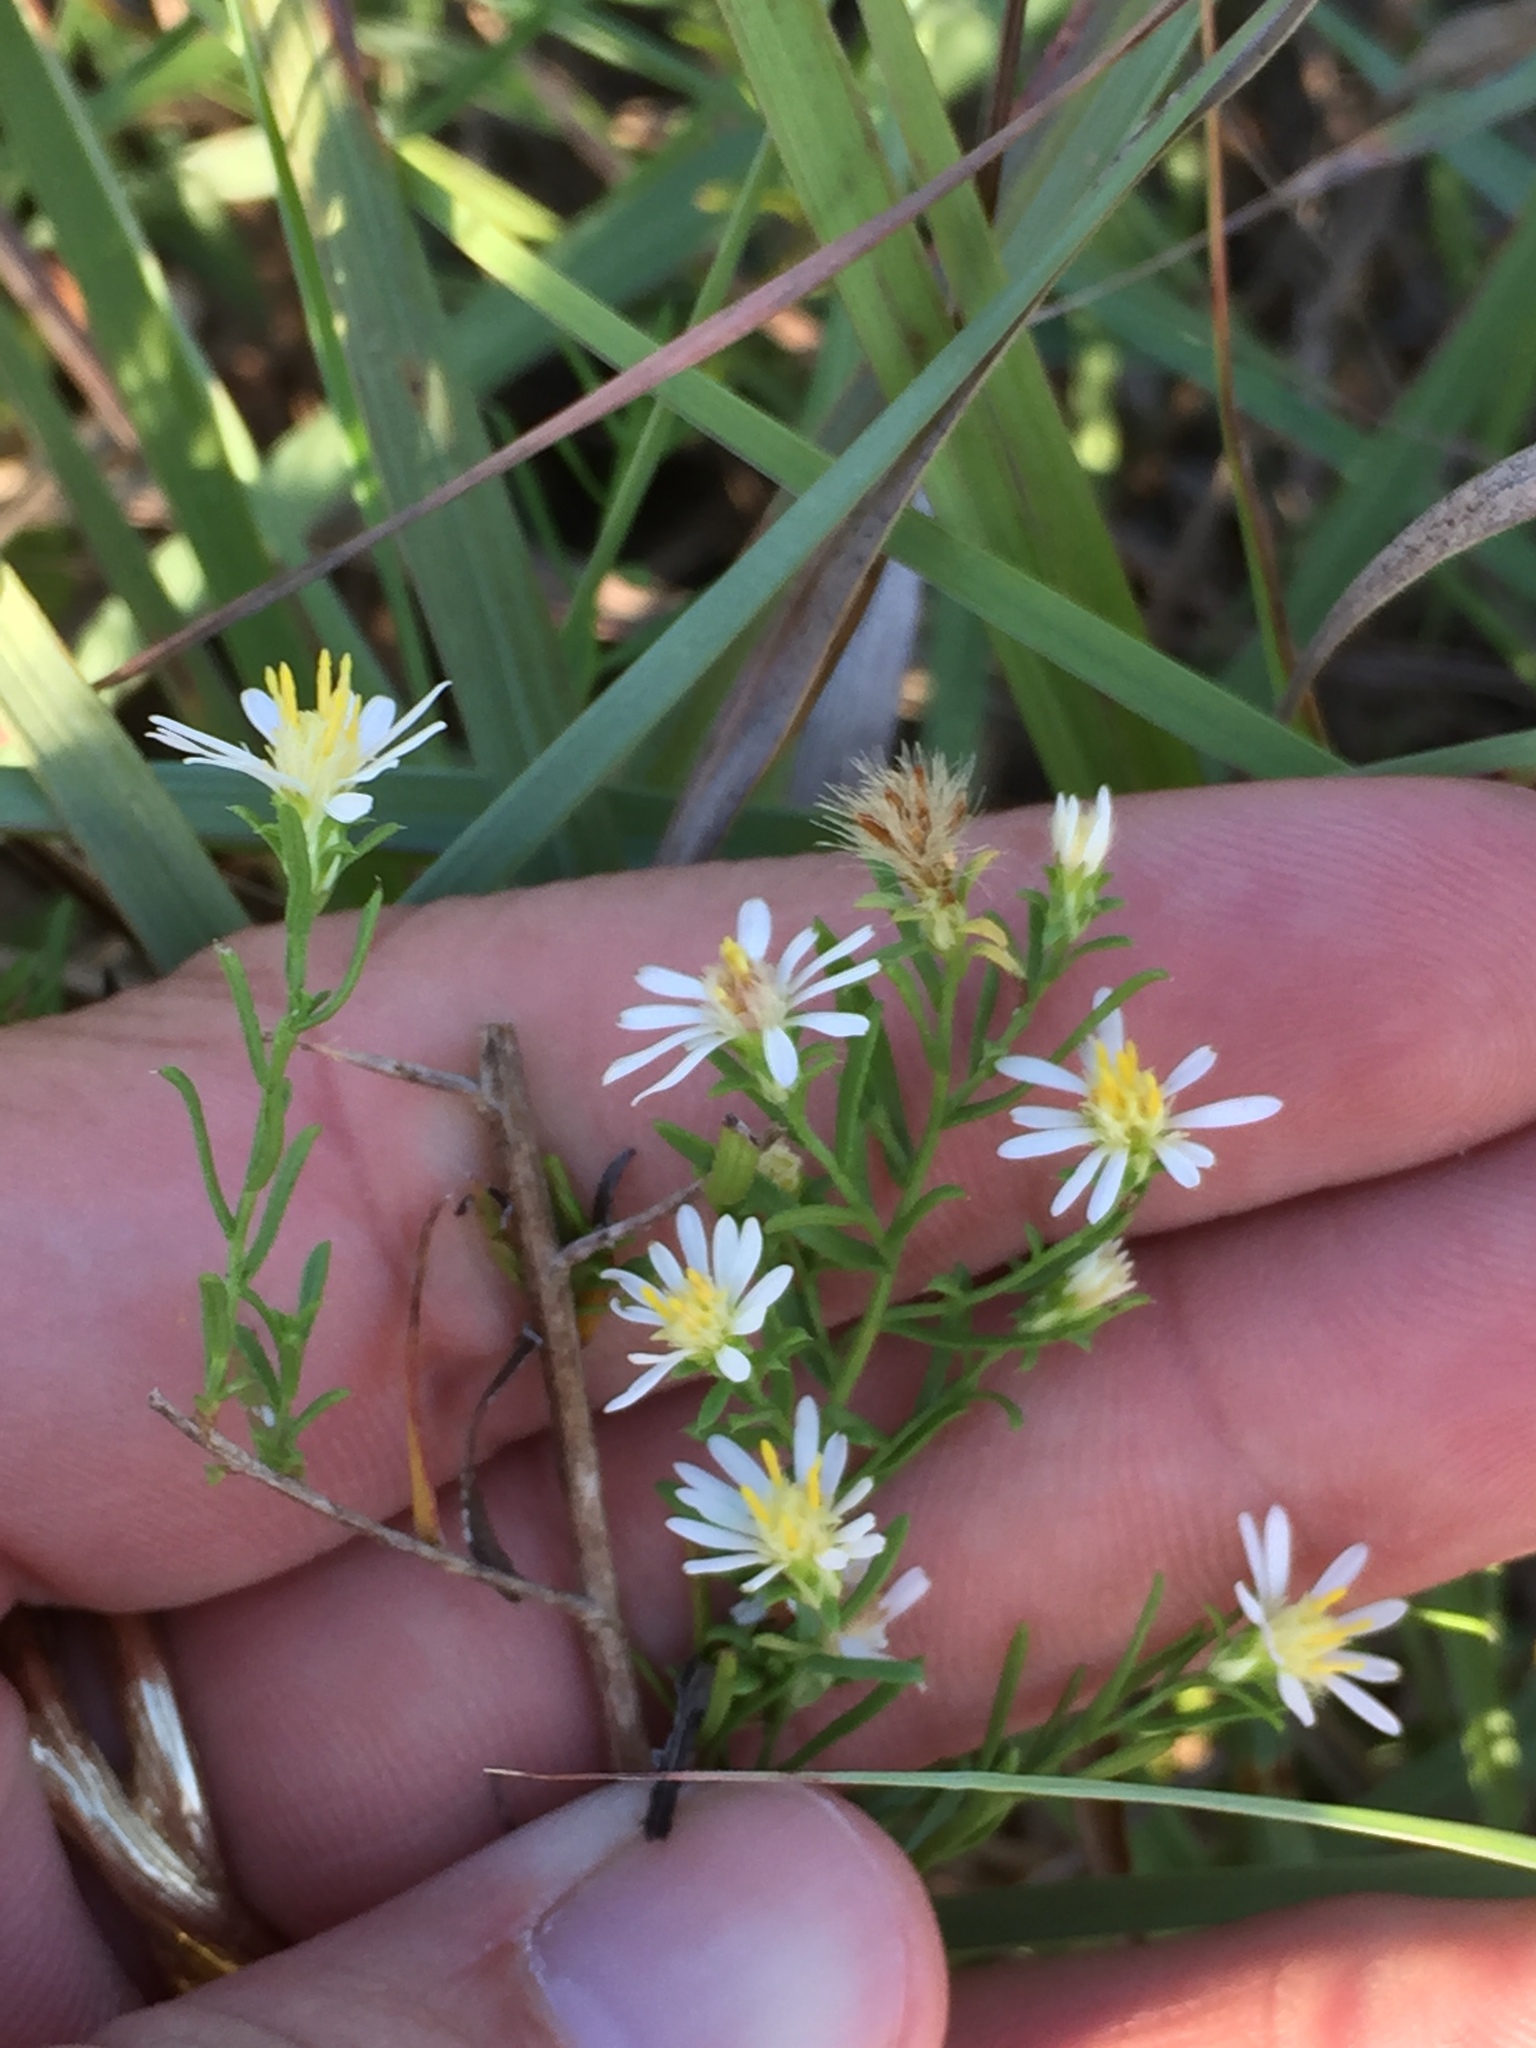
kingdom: Plantae
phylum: Tracheophyta
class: Magnoliopsida
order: Asterales
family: Asteraceae
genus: Symphyotrichum
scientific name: Symphyotrichum ericoides
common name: Heath aster
